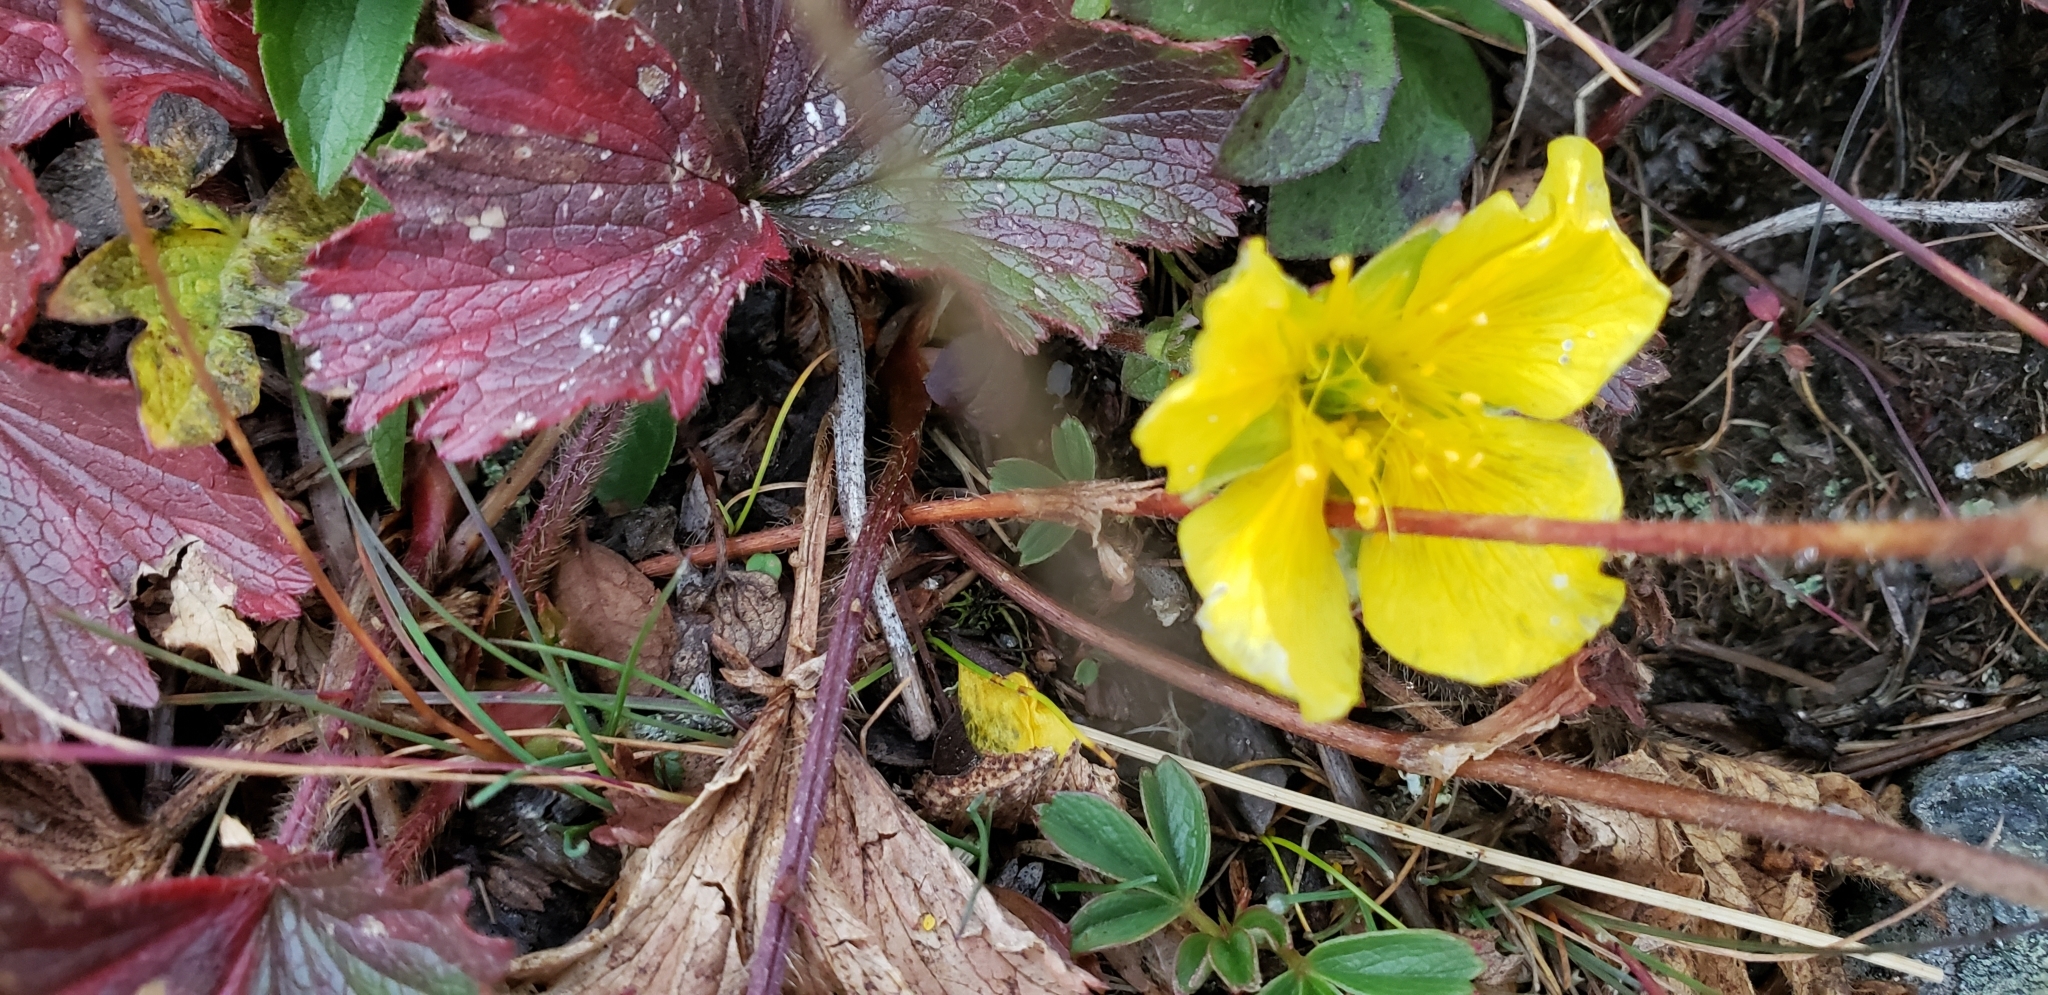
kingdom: Plantae
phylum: Tracheophyta
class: Magnoliopsida
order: Rosales
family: Rosaceae
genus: Geum
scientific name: Geum peckii
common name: Eastern mountain avens
